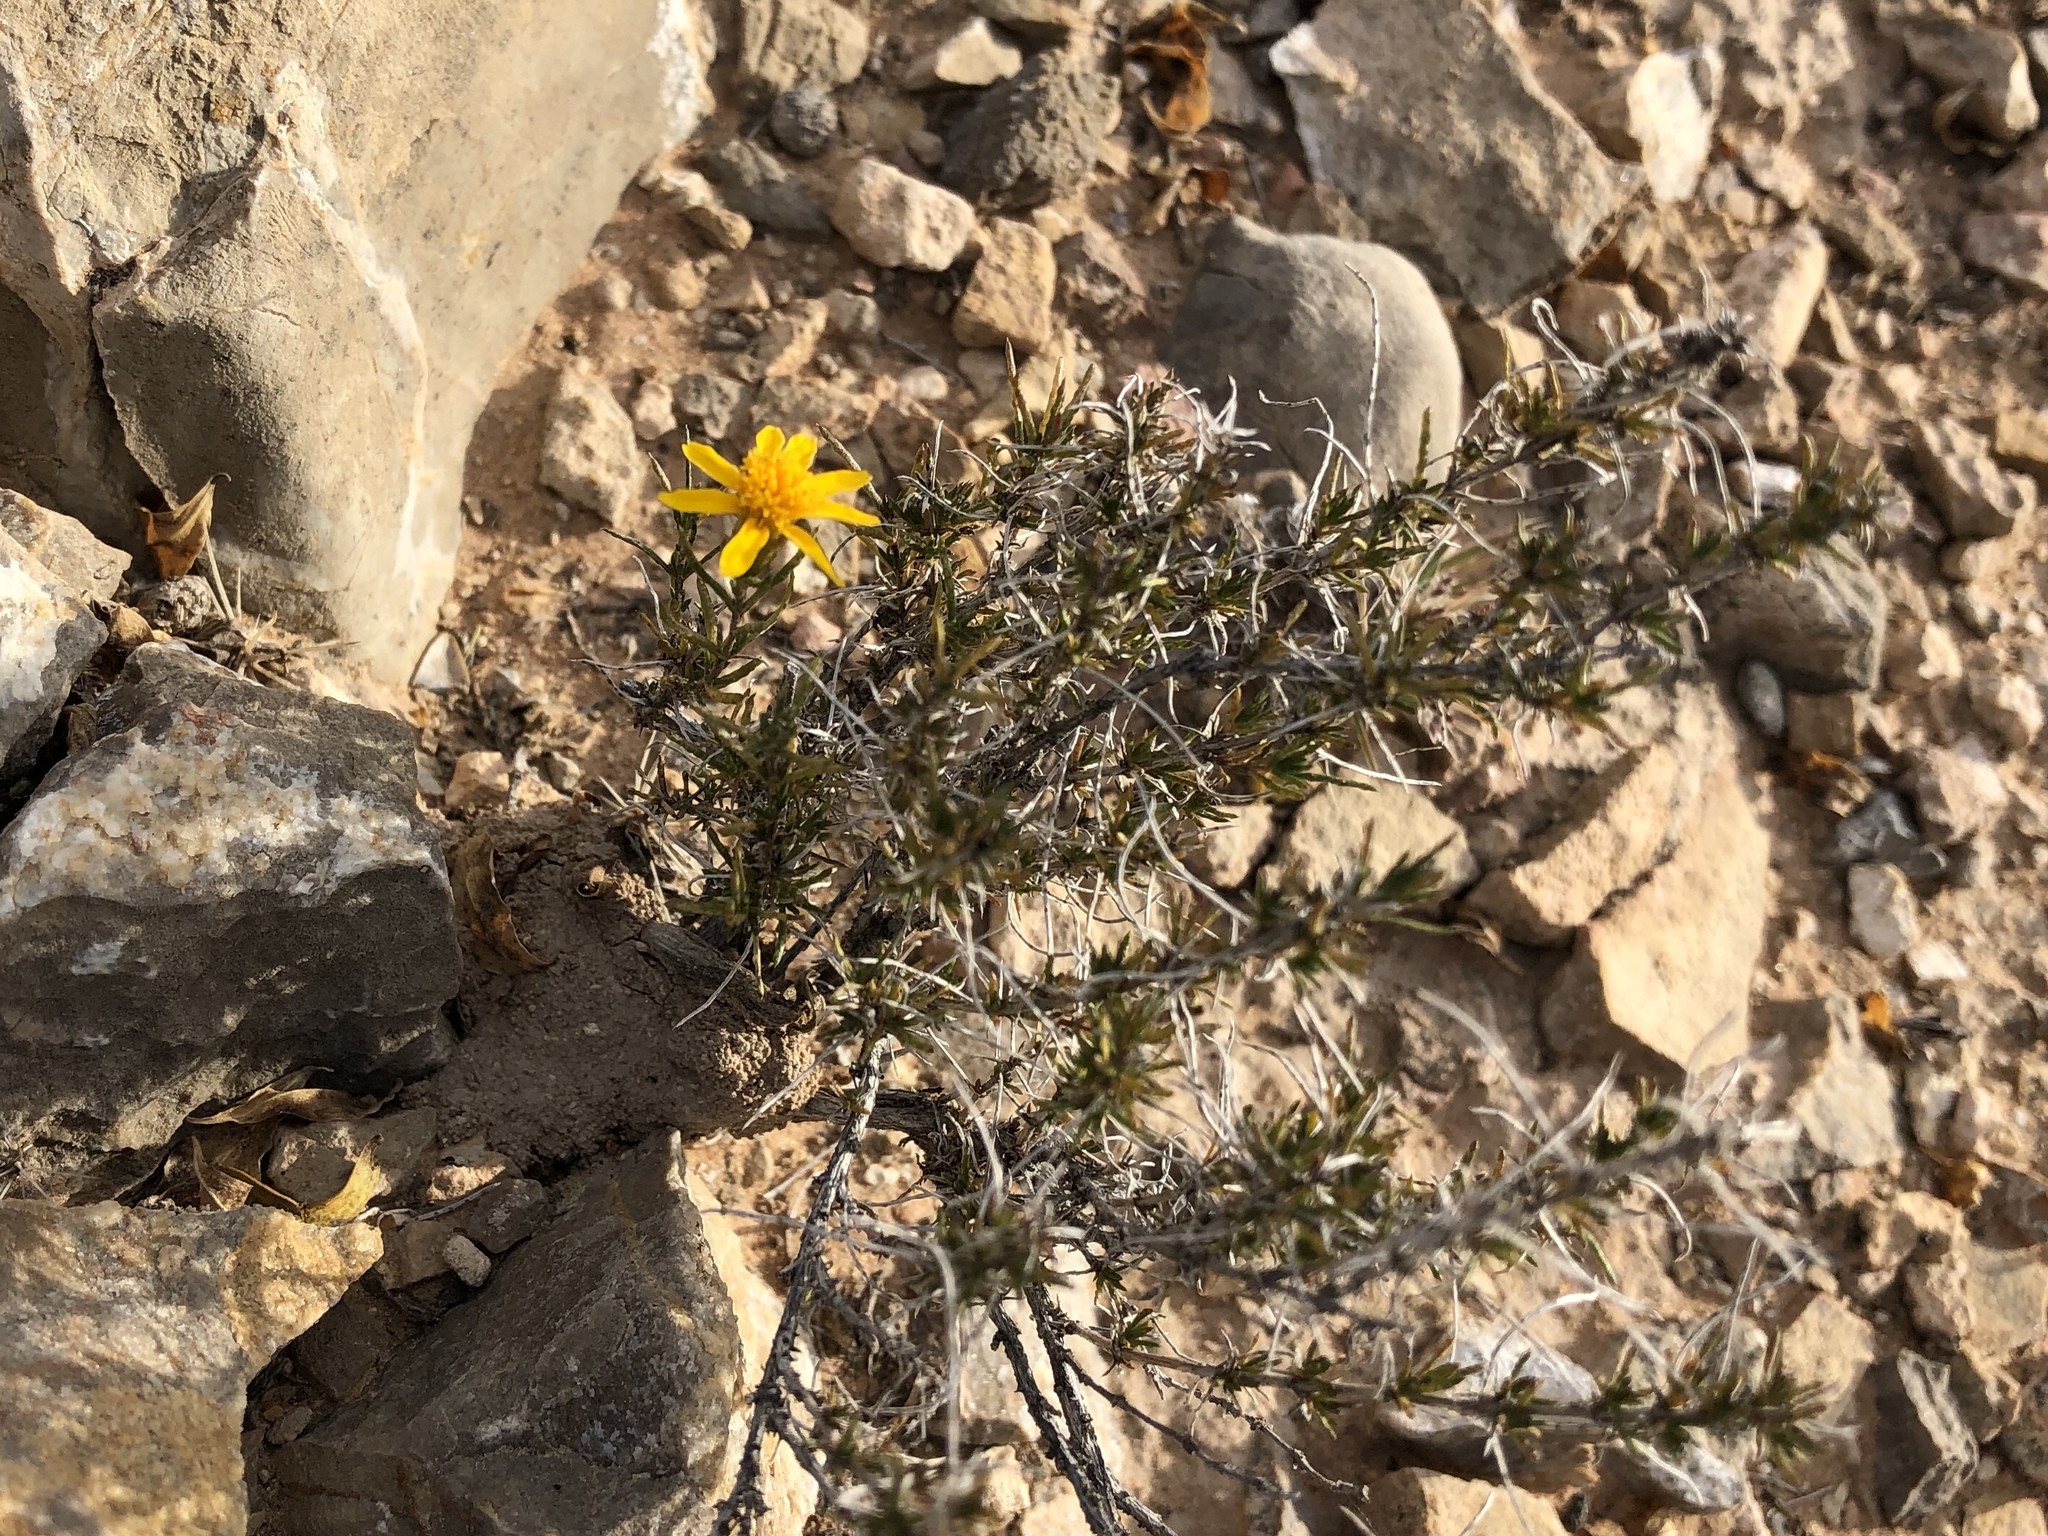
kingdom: Plantae
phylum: Tracheophyta
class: Magnoliopsida
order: Asterales
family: Asteraceae
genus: Thymophylla
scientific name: Thymophylla acerosa
